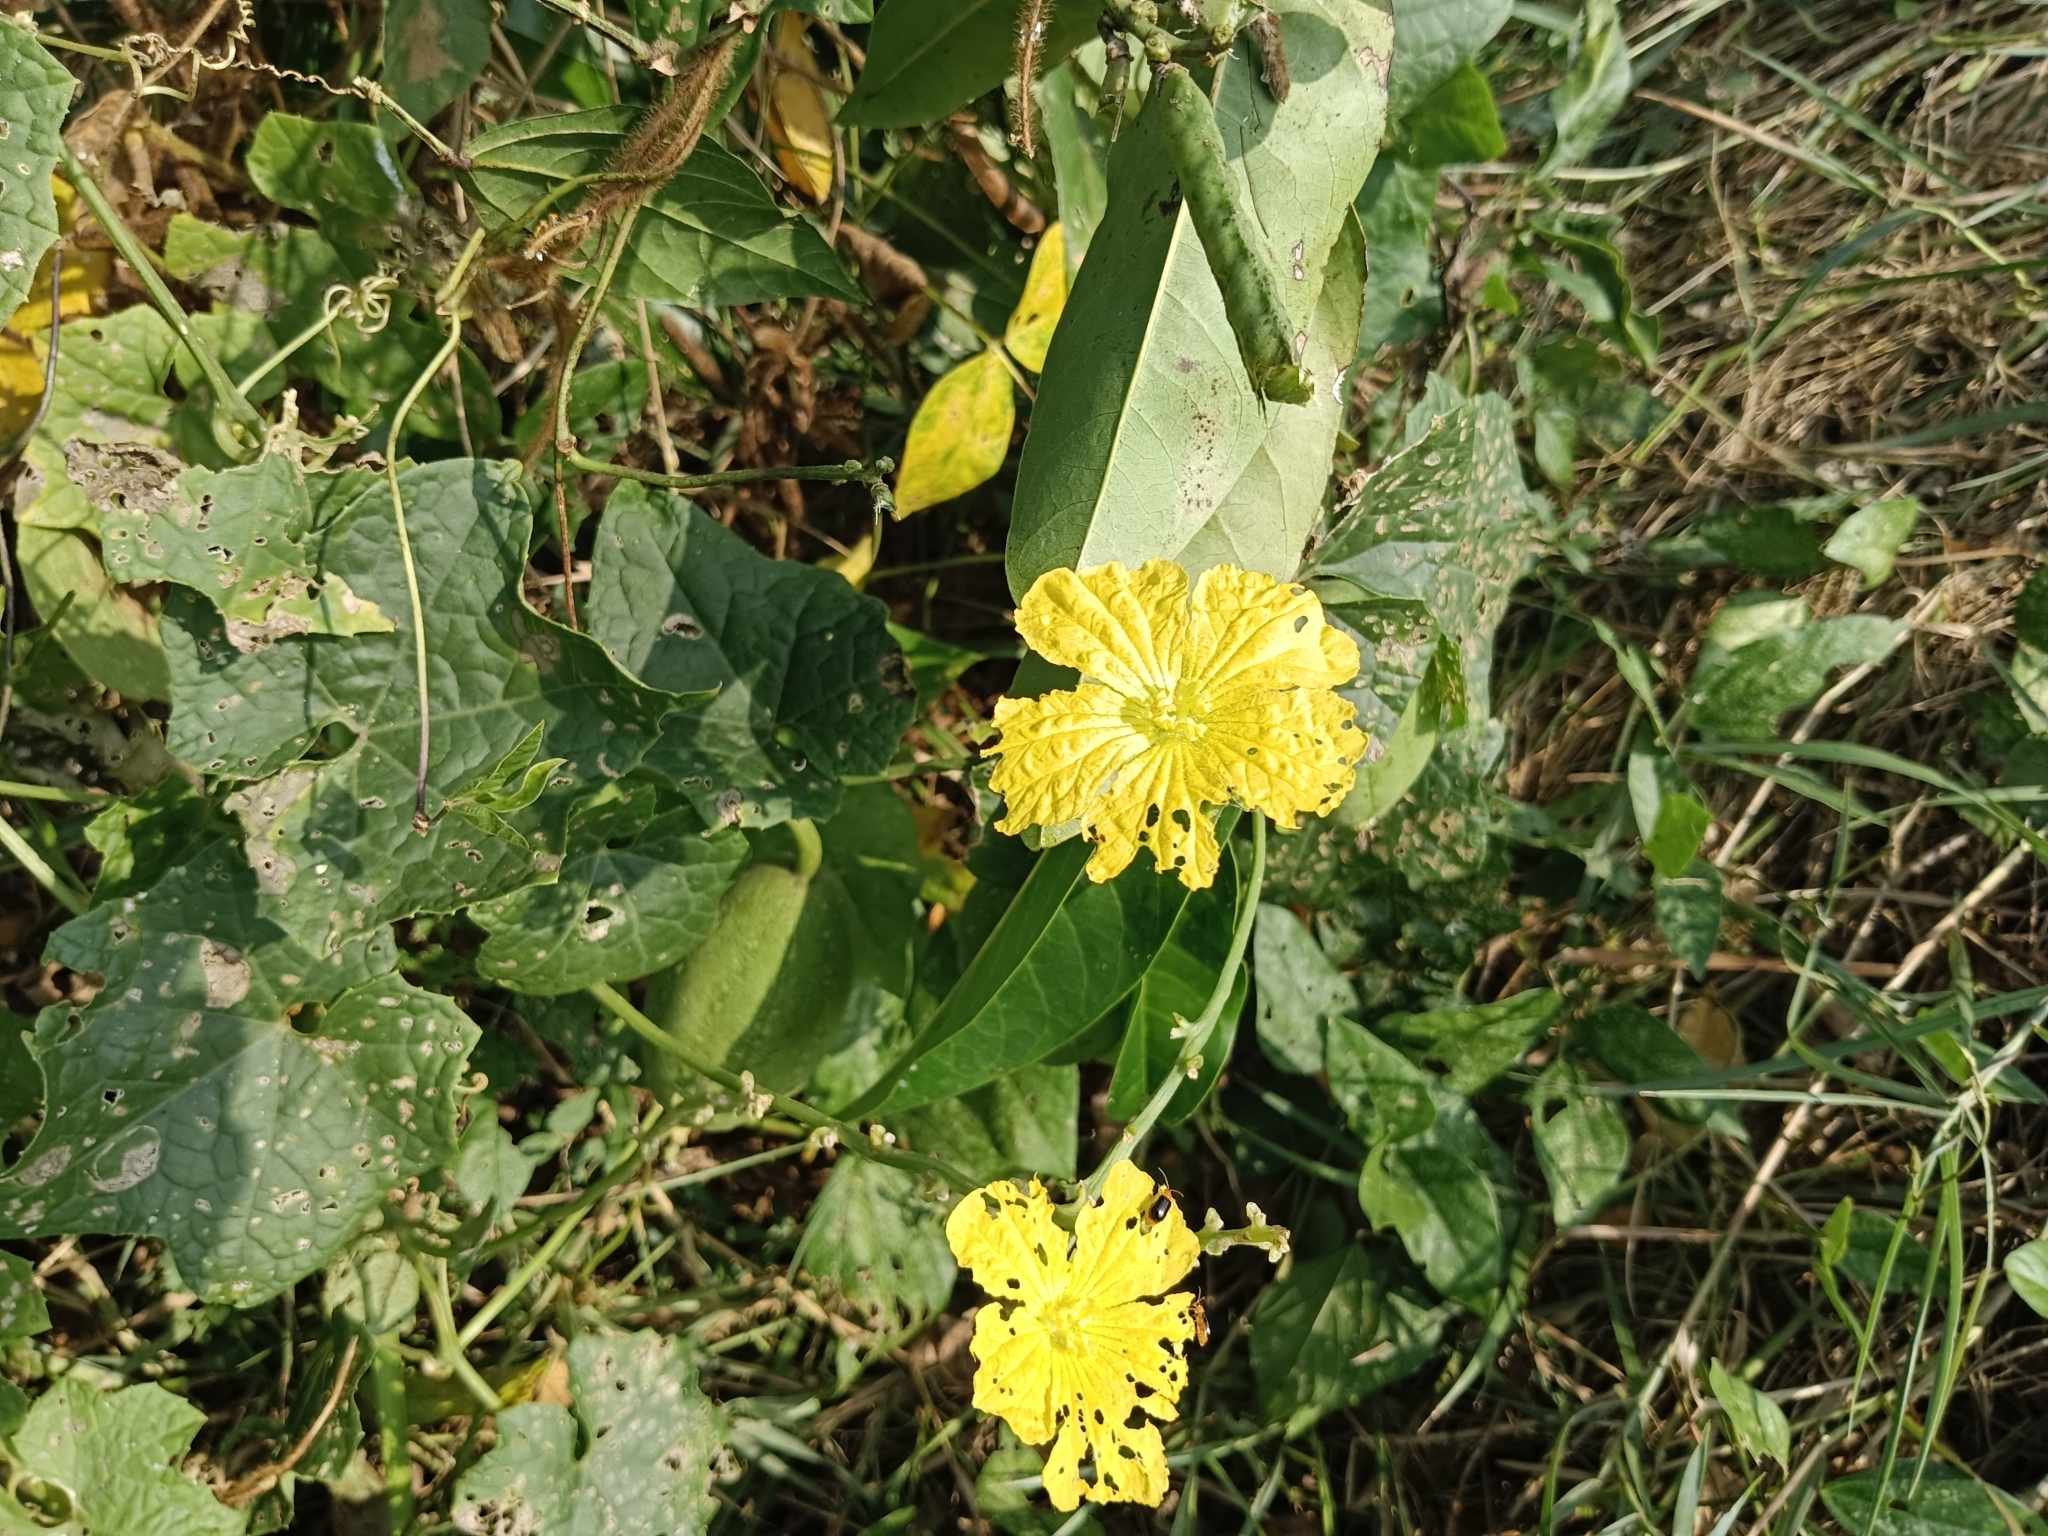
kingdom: Plantae
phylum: Tracheophyta
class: Magnoliopsida
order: Cucurbitales
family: Cucurbitaceae
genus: Luffa
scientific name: Luffa aegyptiaca
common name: Sponge gourd
